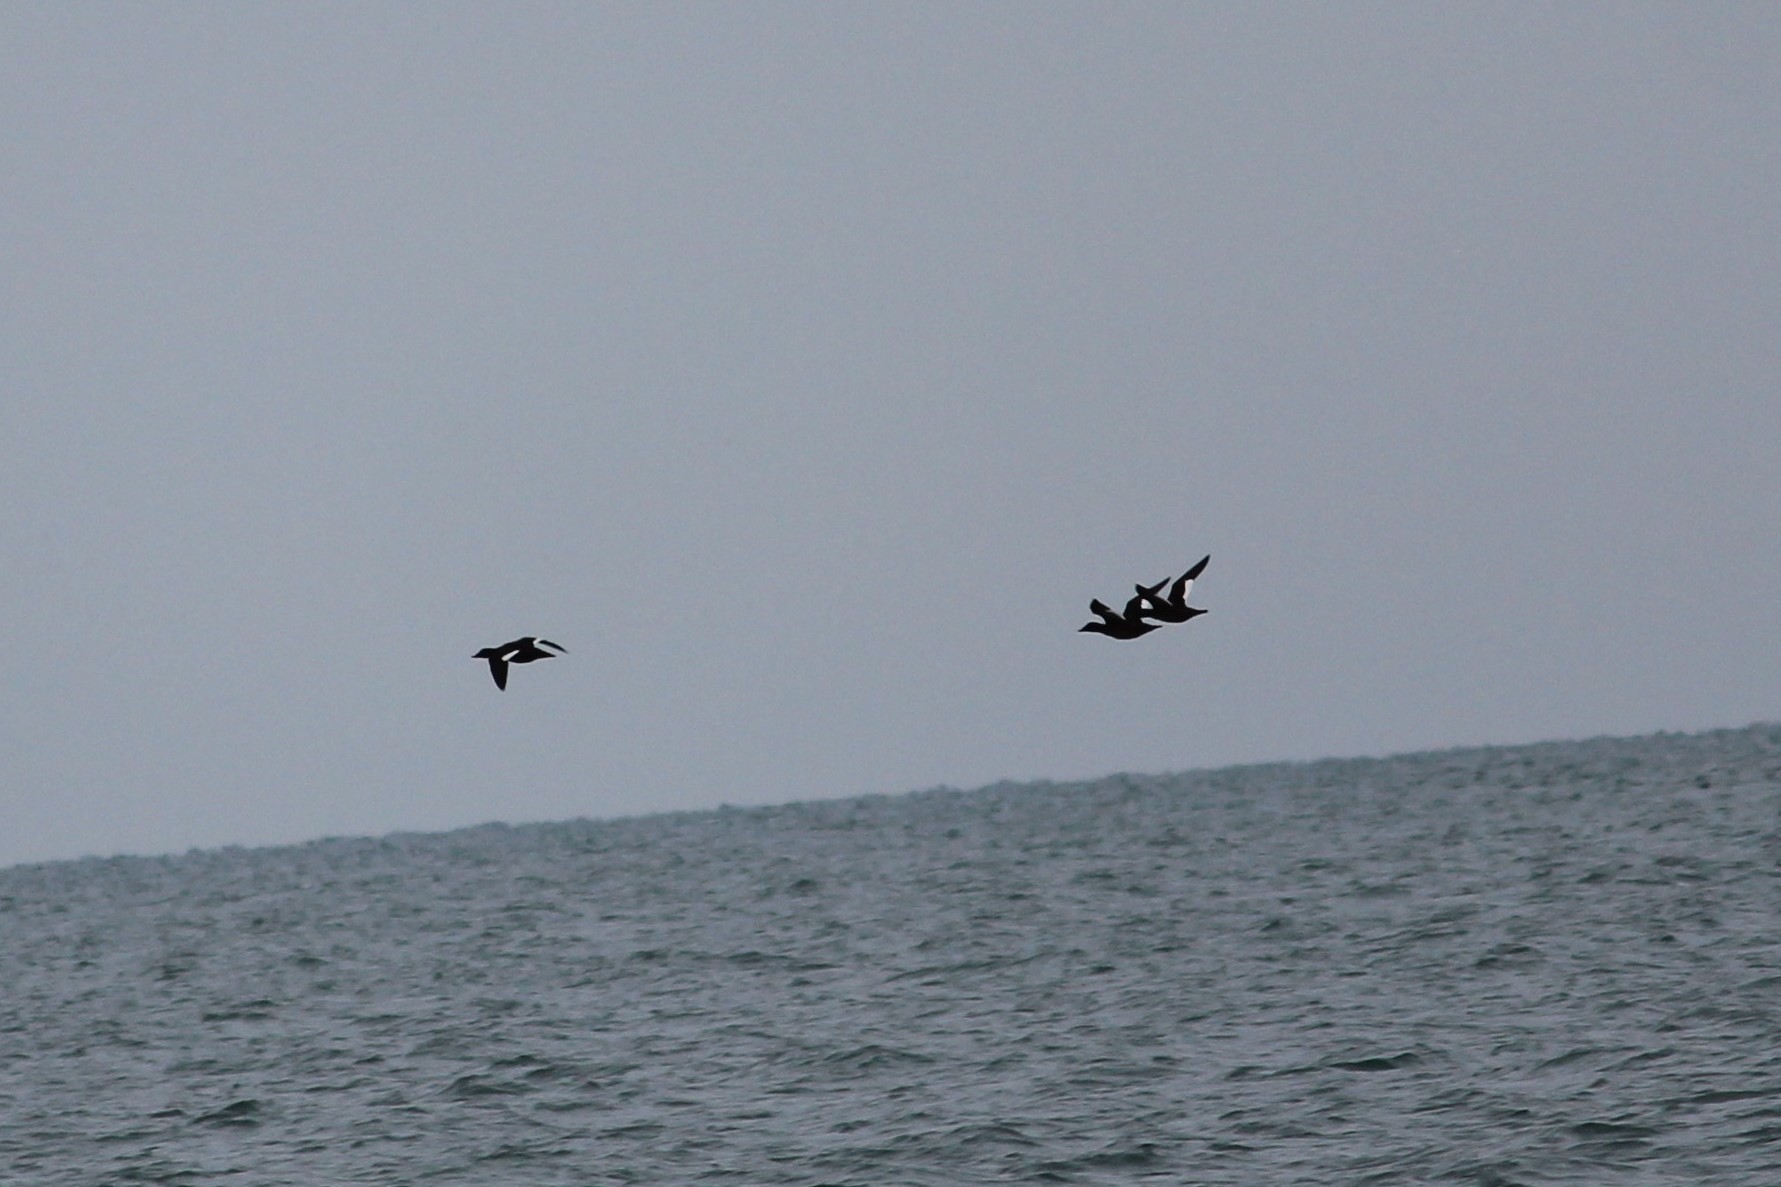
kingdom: Animalia
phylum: Chordata
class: Aves
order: Anseriformes
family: Anatidae
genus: Melanitta
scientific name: Melanitta deglandi
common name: White-winged scoter
